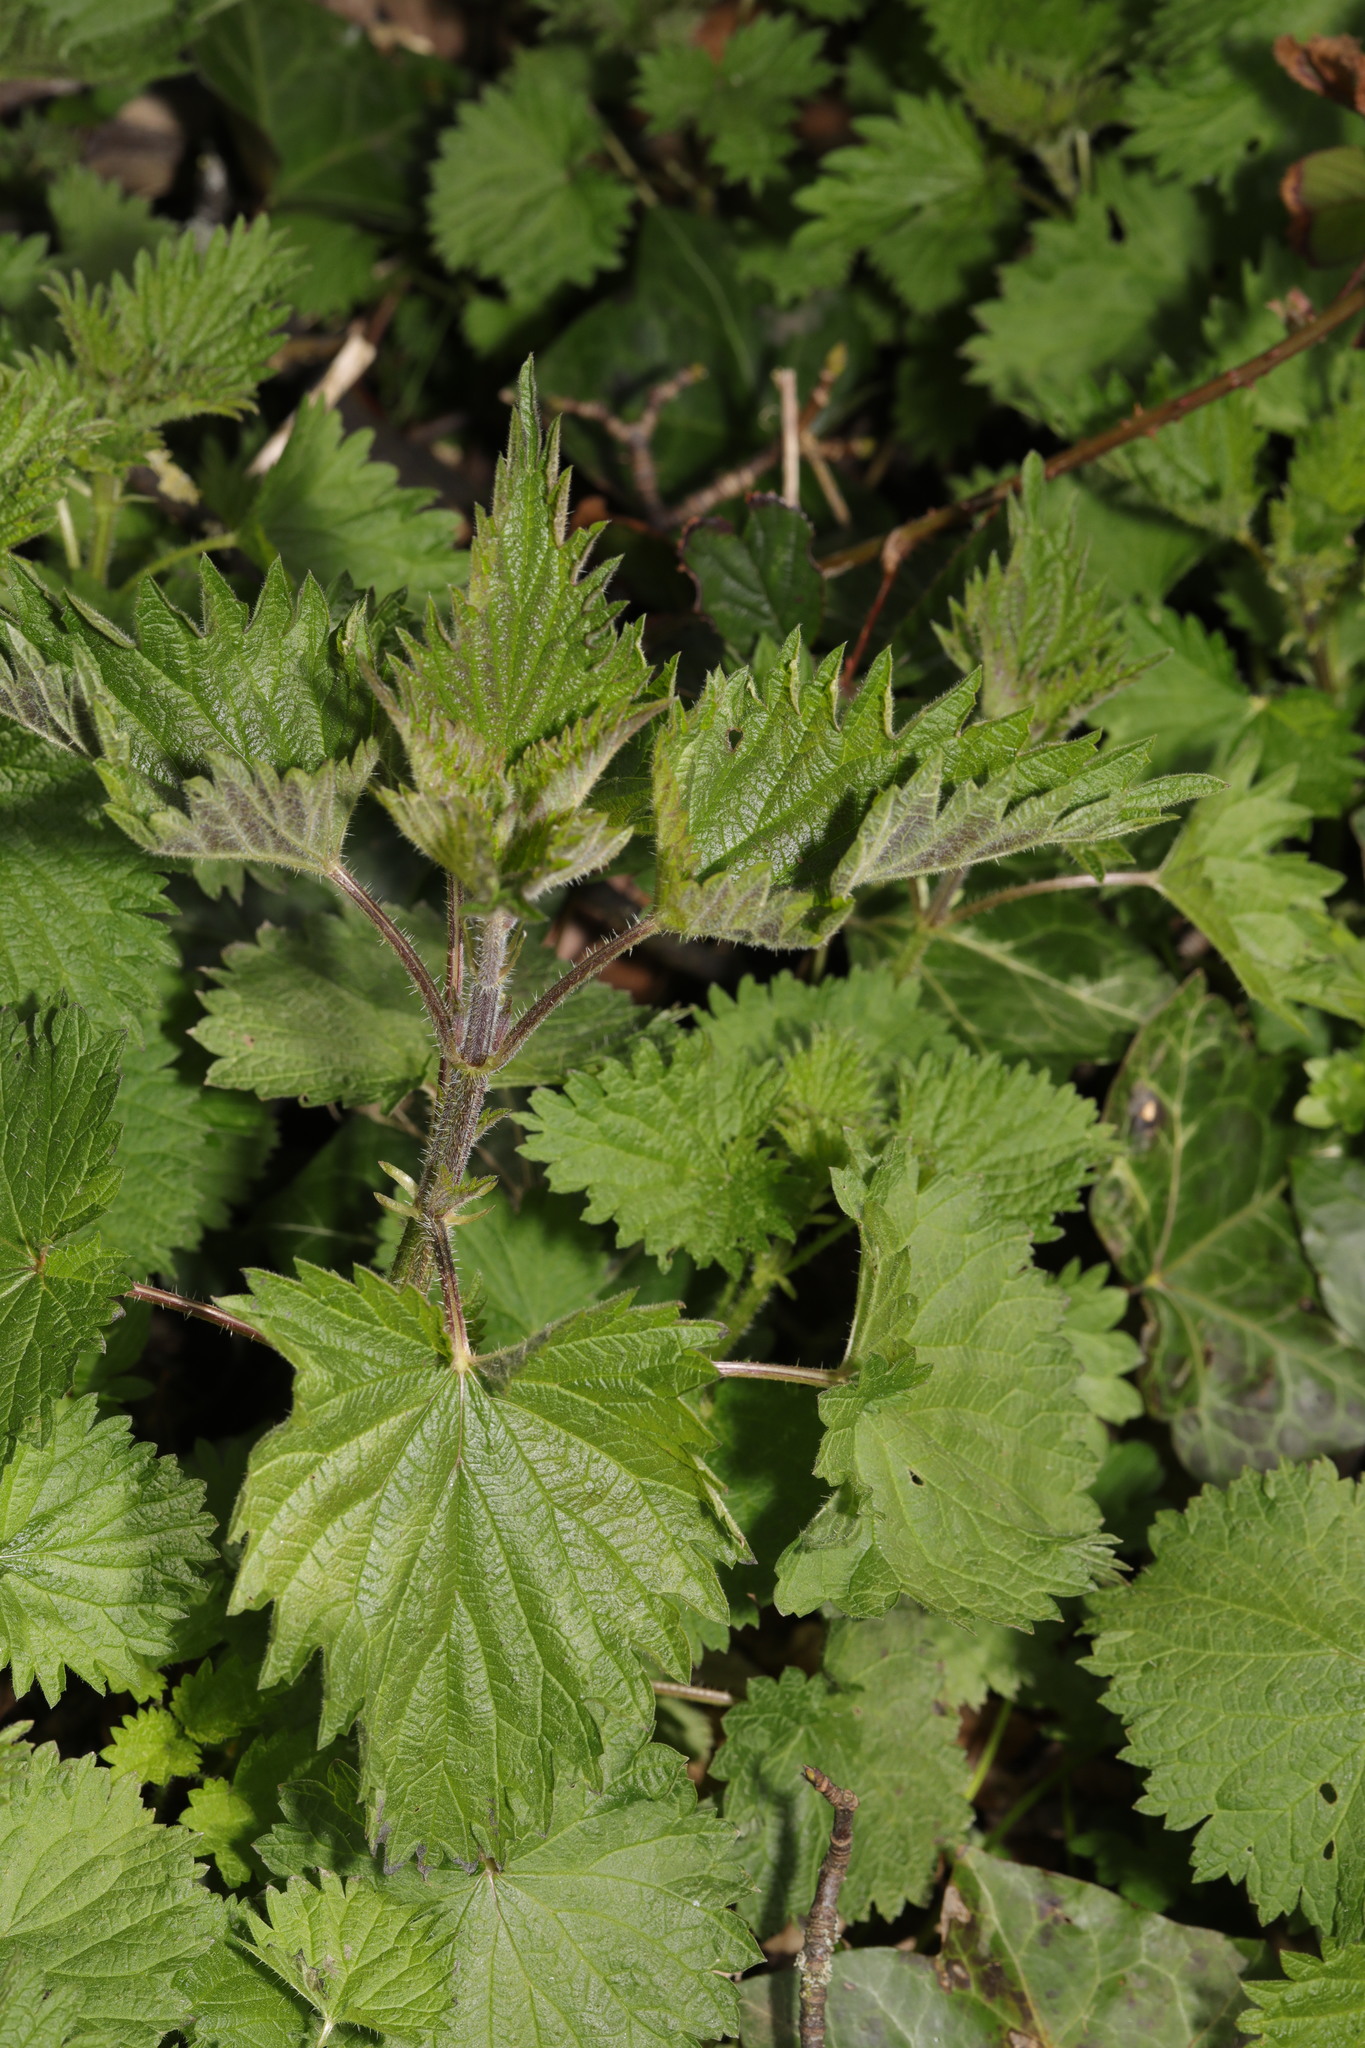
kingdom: Plantae
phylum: Tracheophyta
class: Magnoliopsida
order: Rosales
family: Urticaceae
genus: Urtica
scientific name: Urtica dioica
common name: Common nettle
